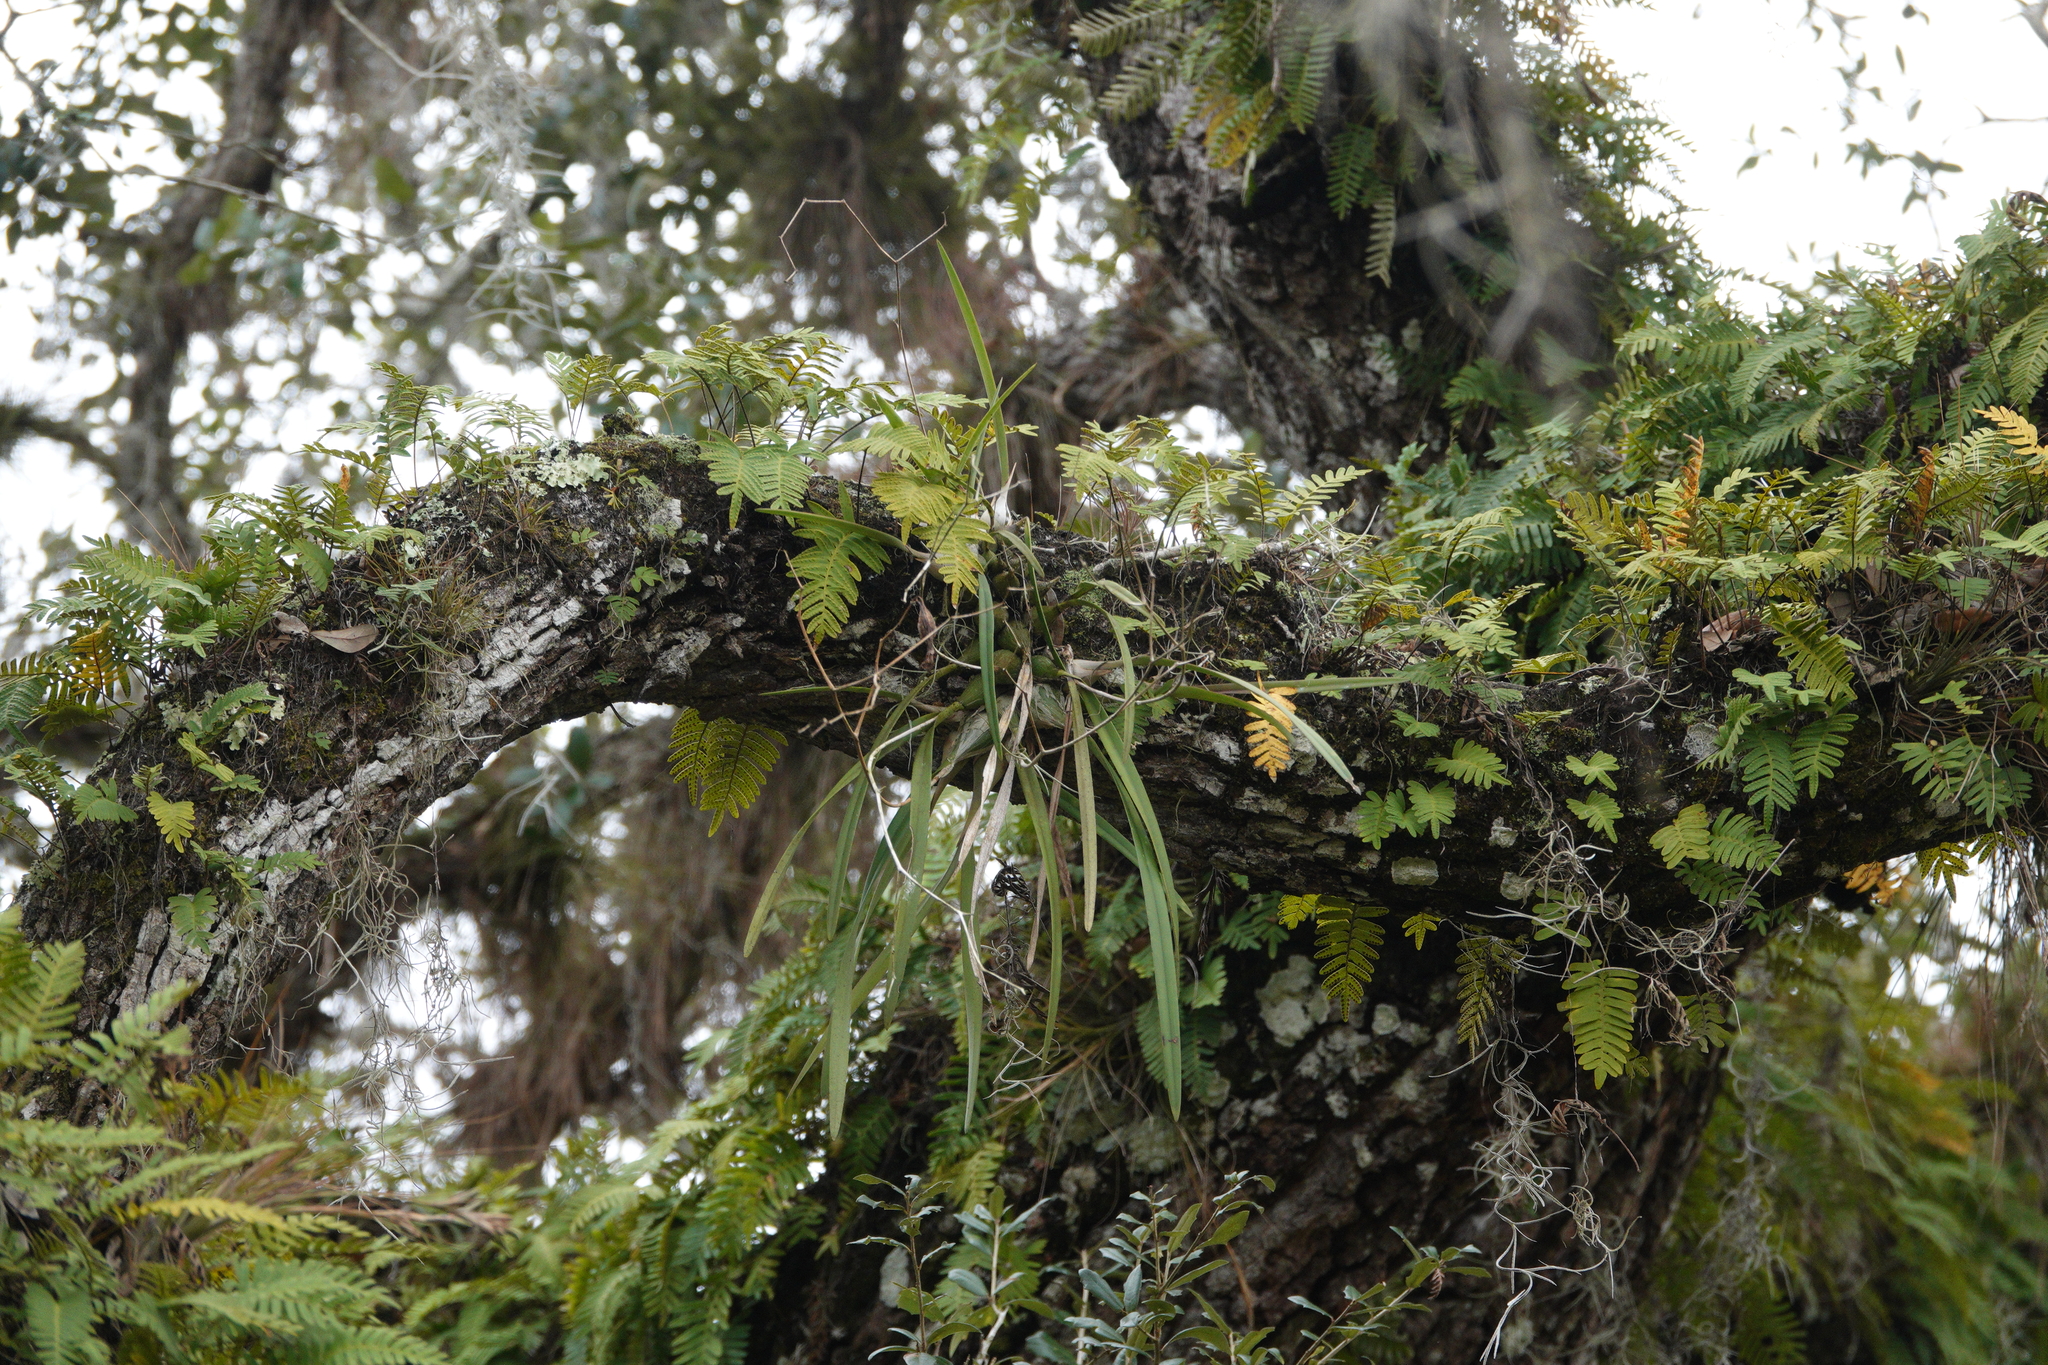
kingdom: Plantae
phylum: Tracheophyta
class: Liliopsida
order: Asparagales
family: Orchidaceae
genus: Encyclia
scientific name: Encyclia tampensis
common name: Florida butterfly orchid
